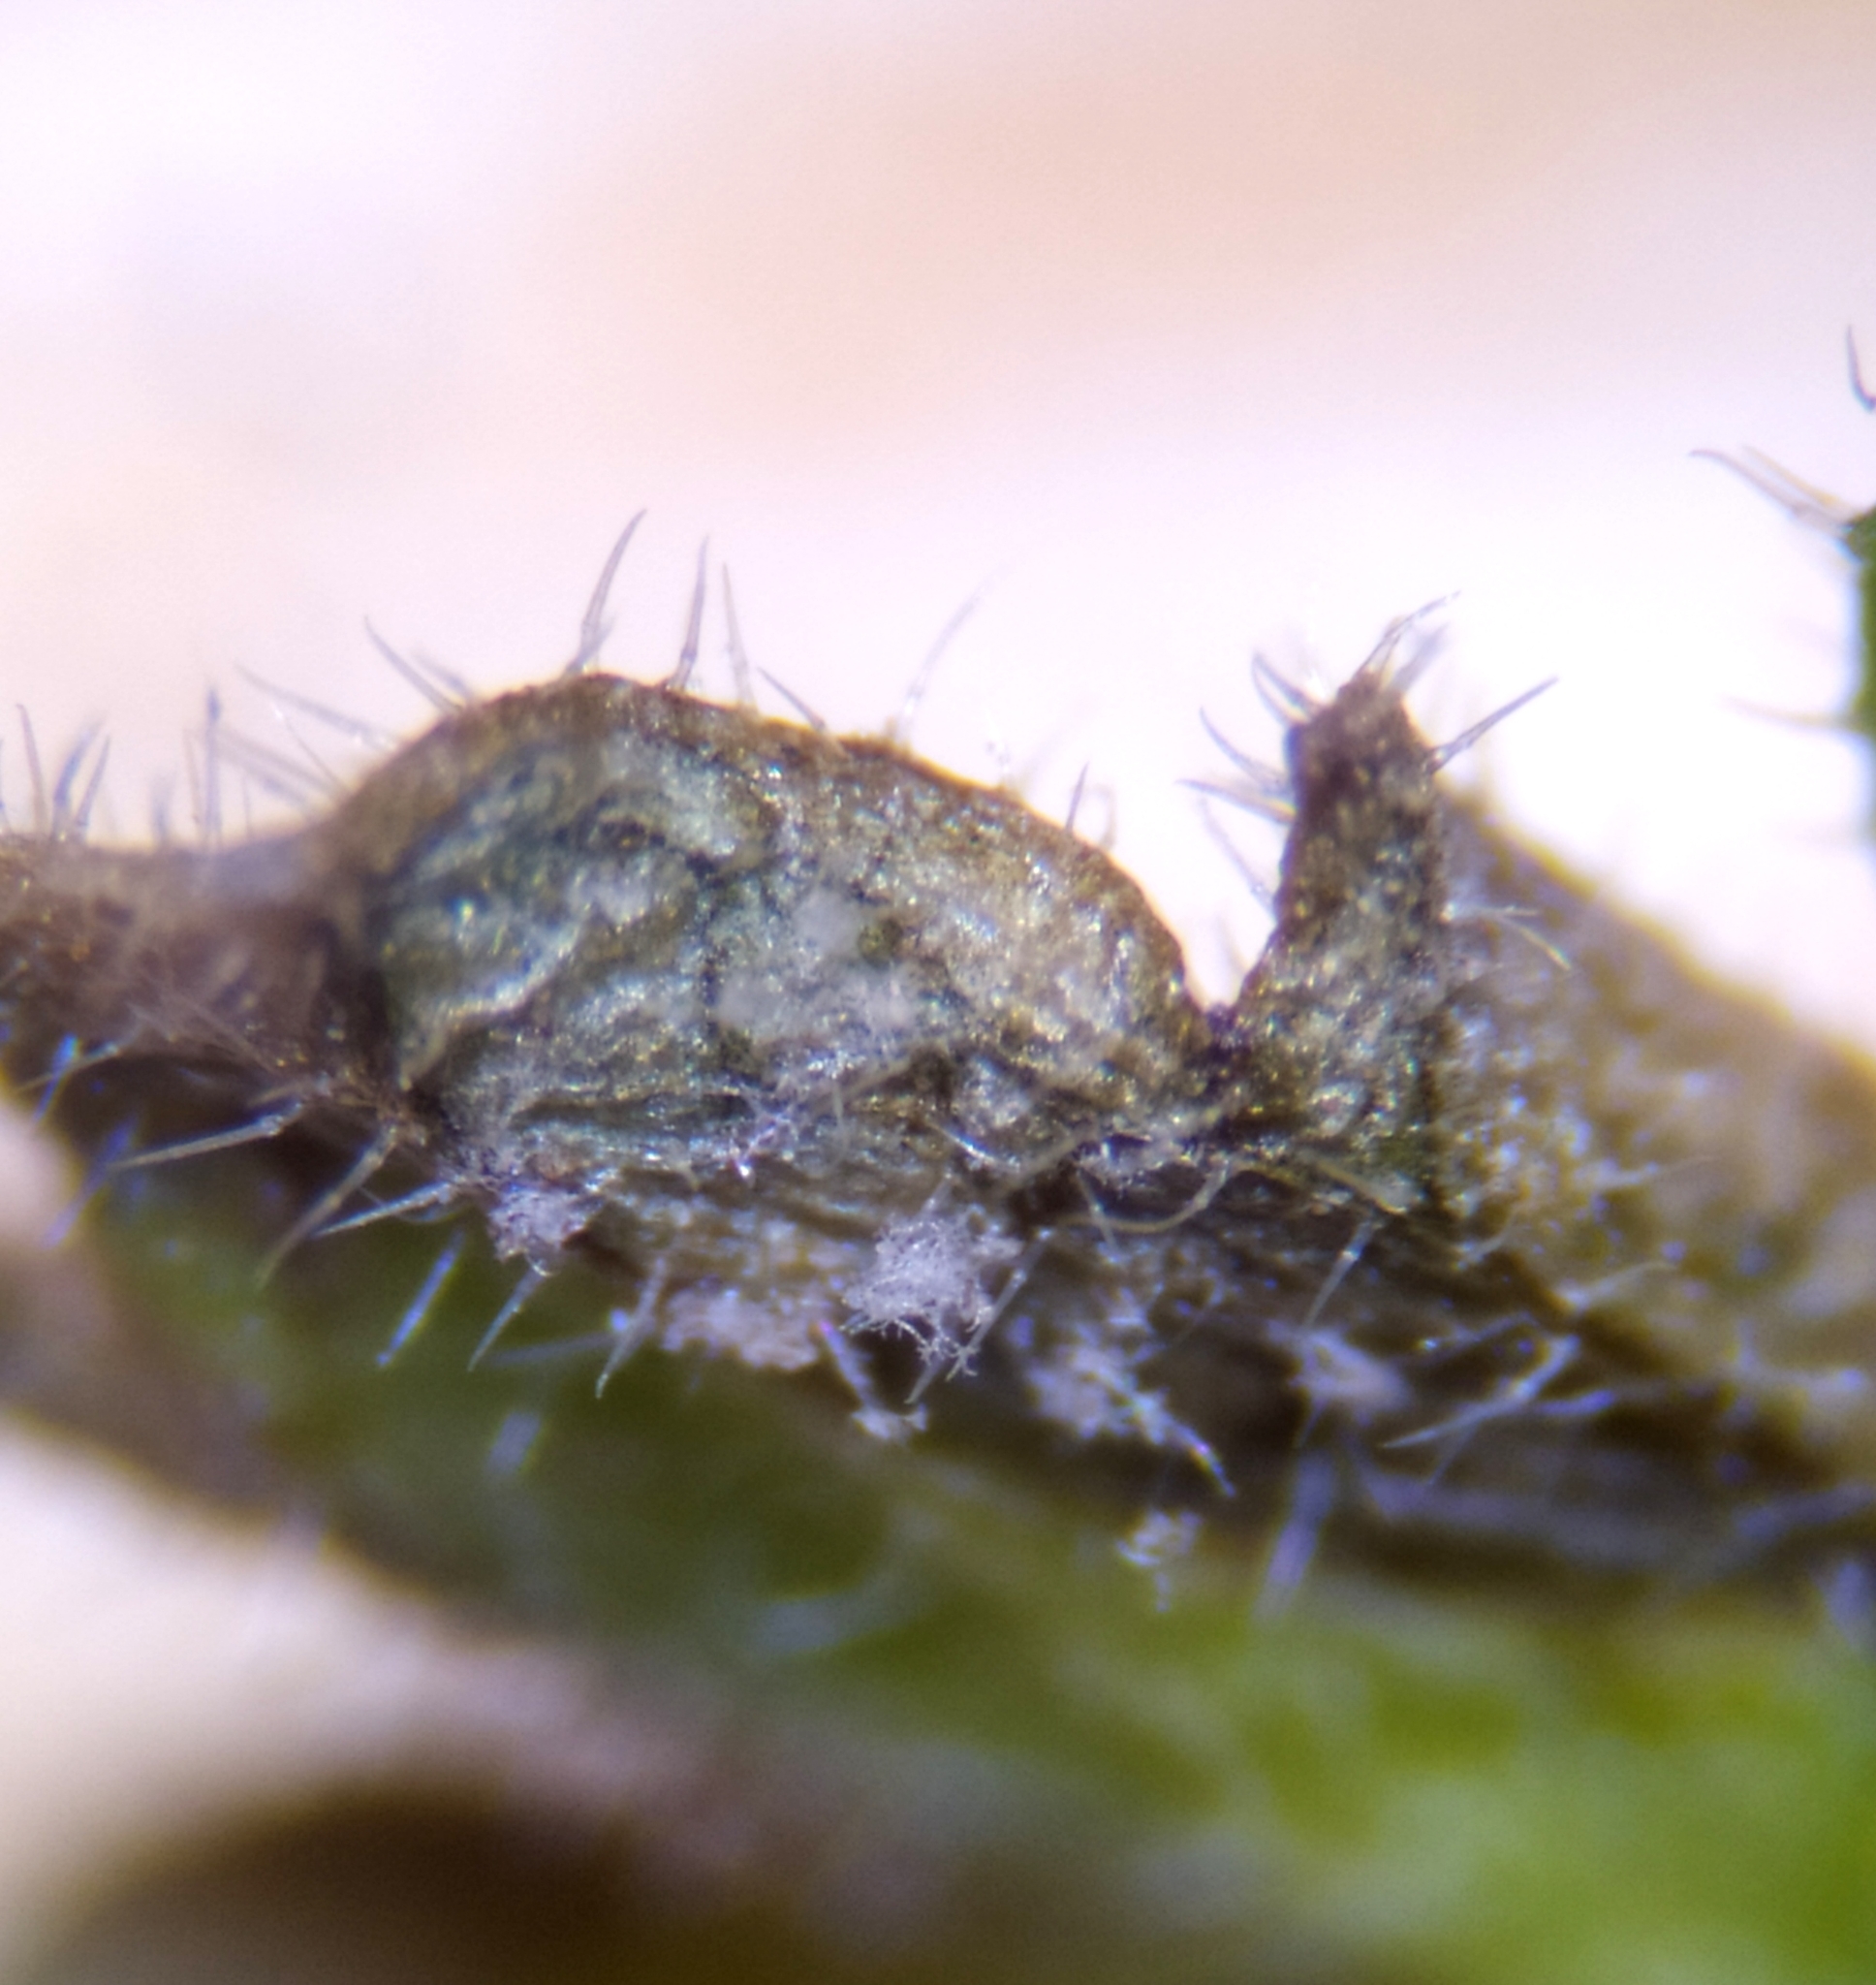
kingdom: Chromista
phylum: Oomycota
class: Peronosporea
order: Peronosporales
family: Peronosporaceae
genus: Peronospora
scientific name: Peronospora lamii
